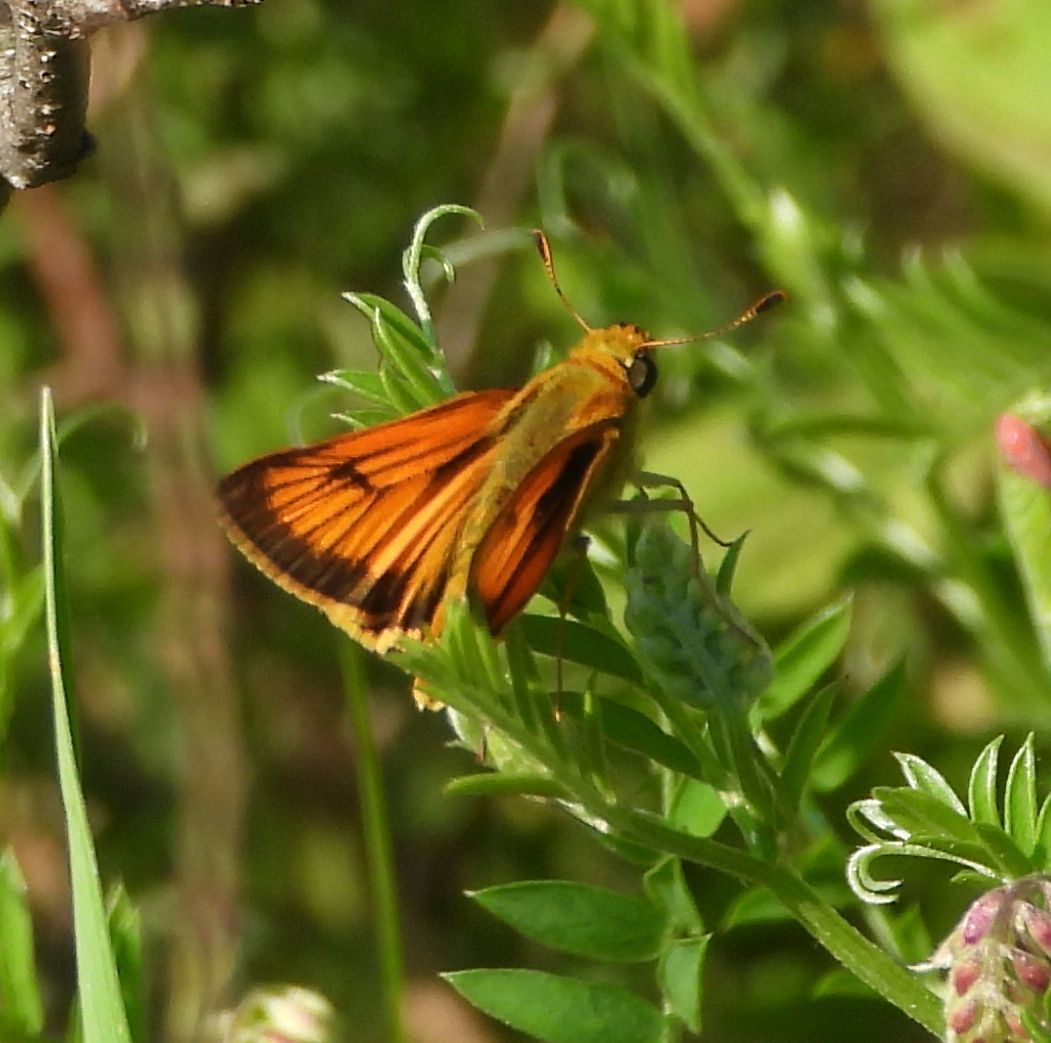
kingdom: Animalia
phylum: Arthropoda
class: Insecta
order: Lepidoptera
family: Hesperiidae
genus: Atrytone
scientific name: Atrytone delaware
